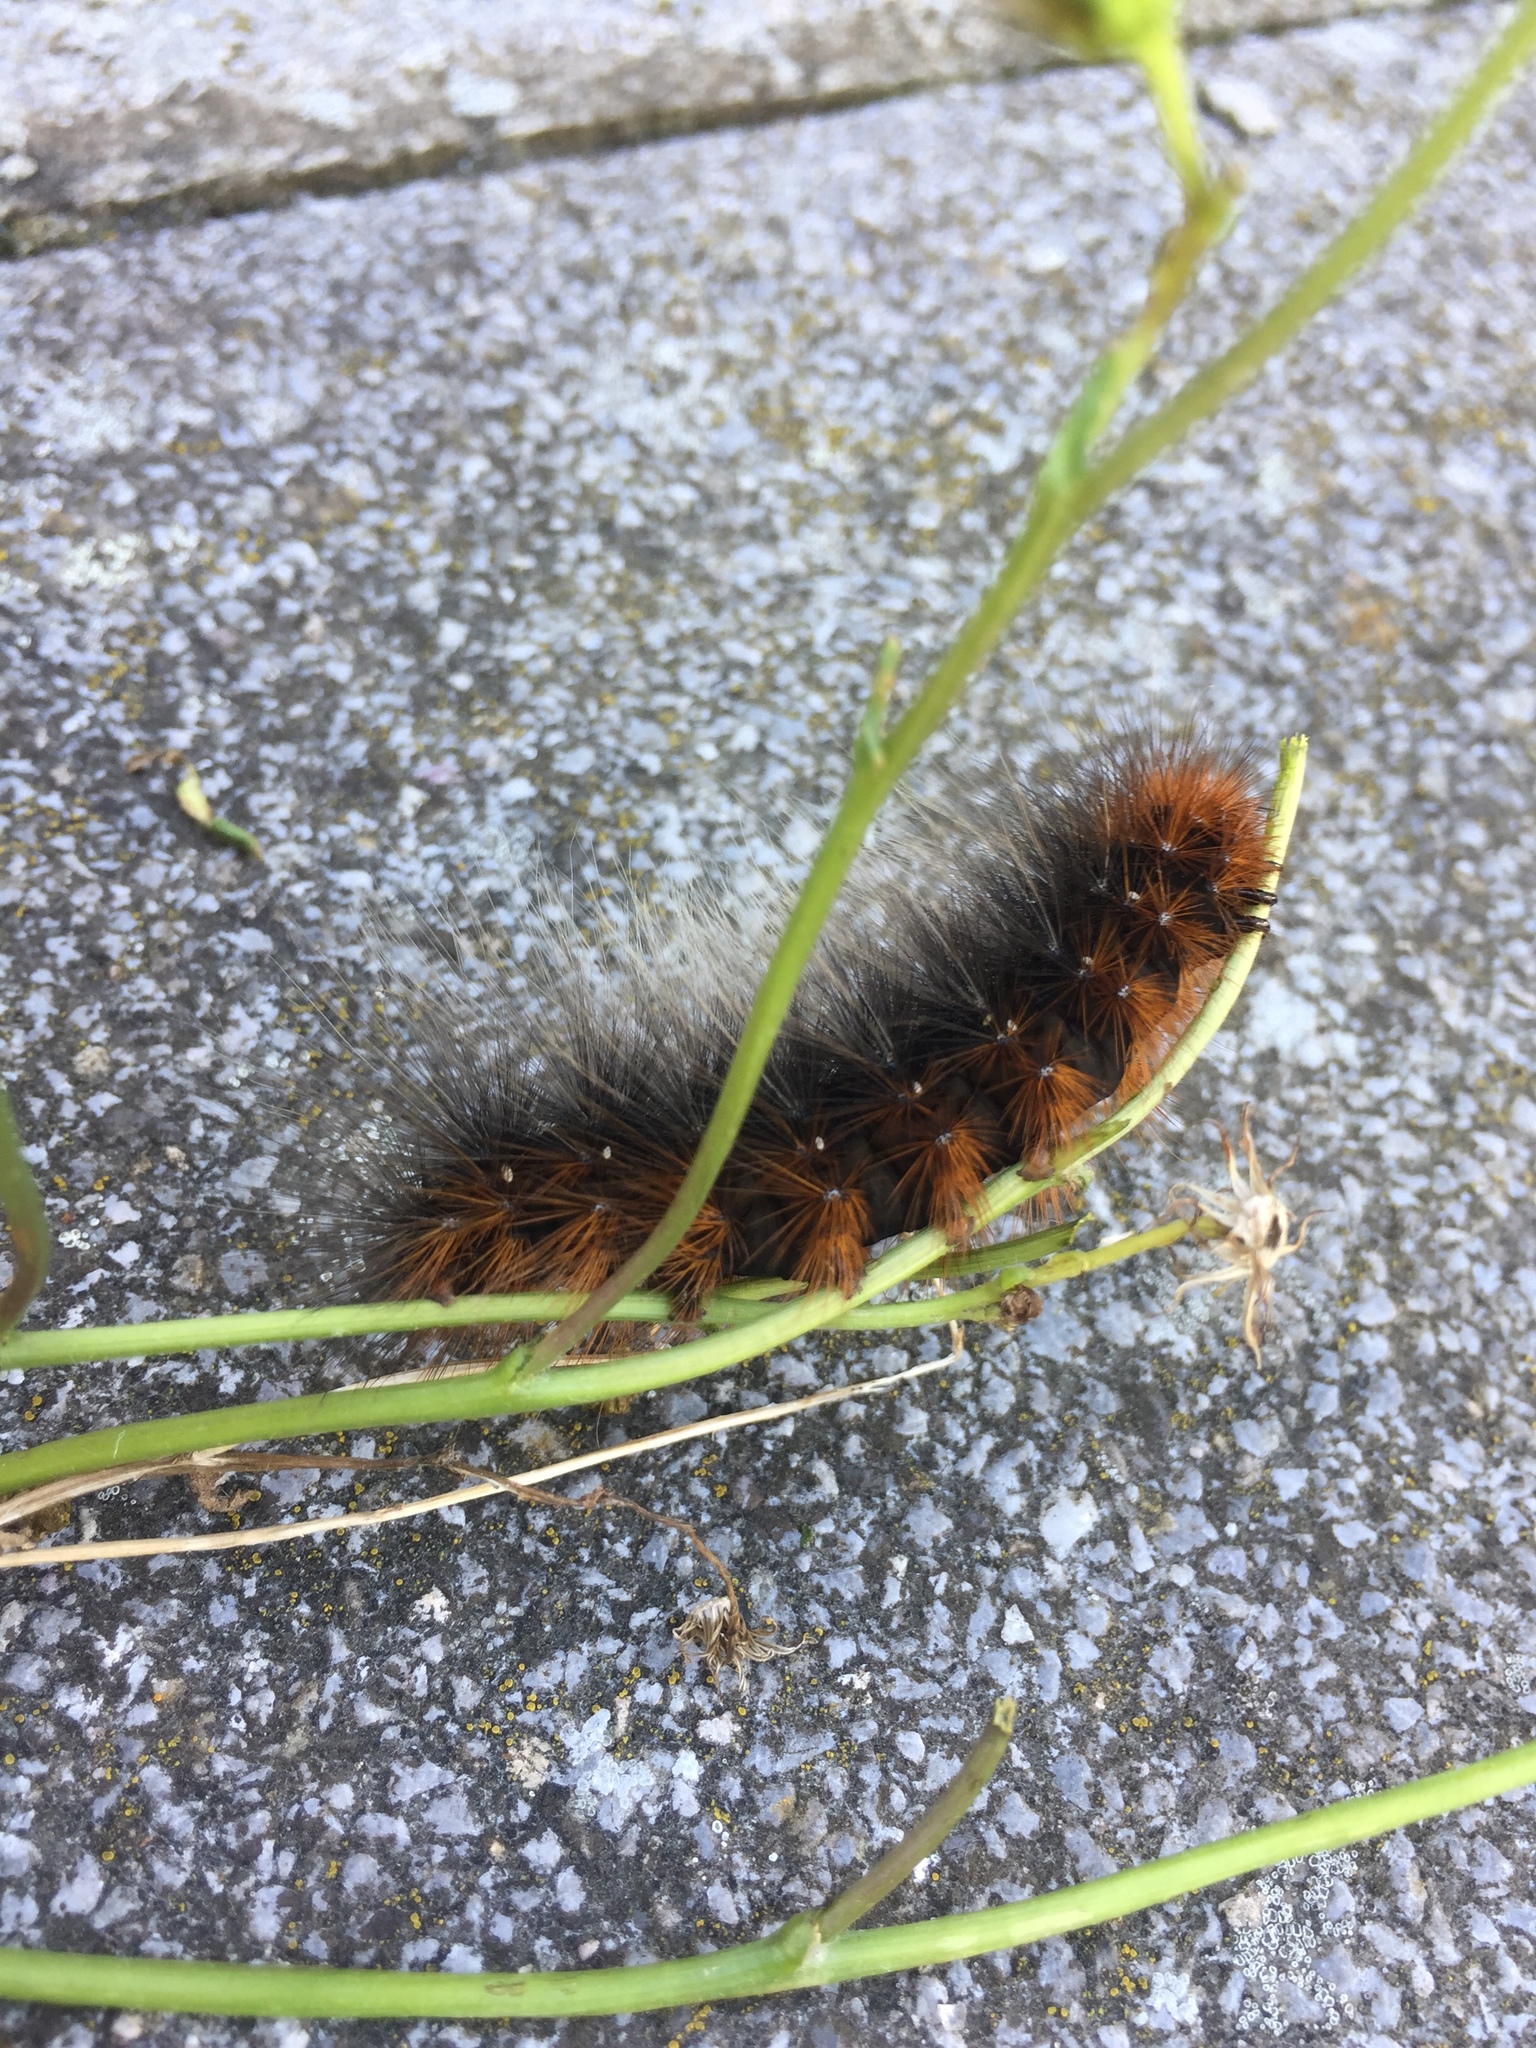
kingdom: Animalia
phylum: Arthropoda
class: Insecta
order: Lepidoptera
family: Erebidae
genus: Arctia
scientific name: Arctia caja
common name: Garden tiger
